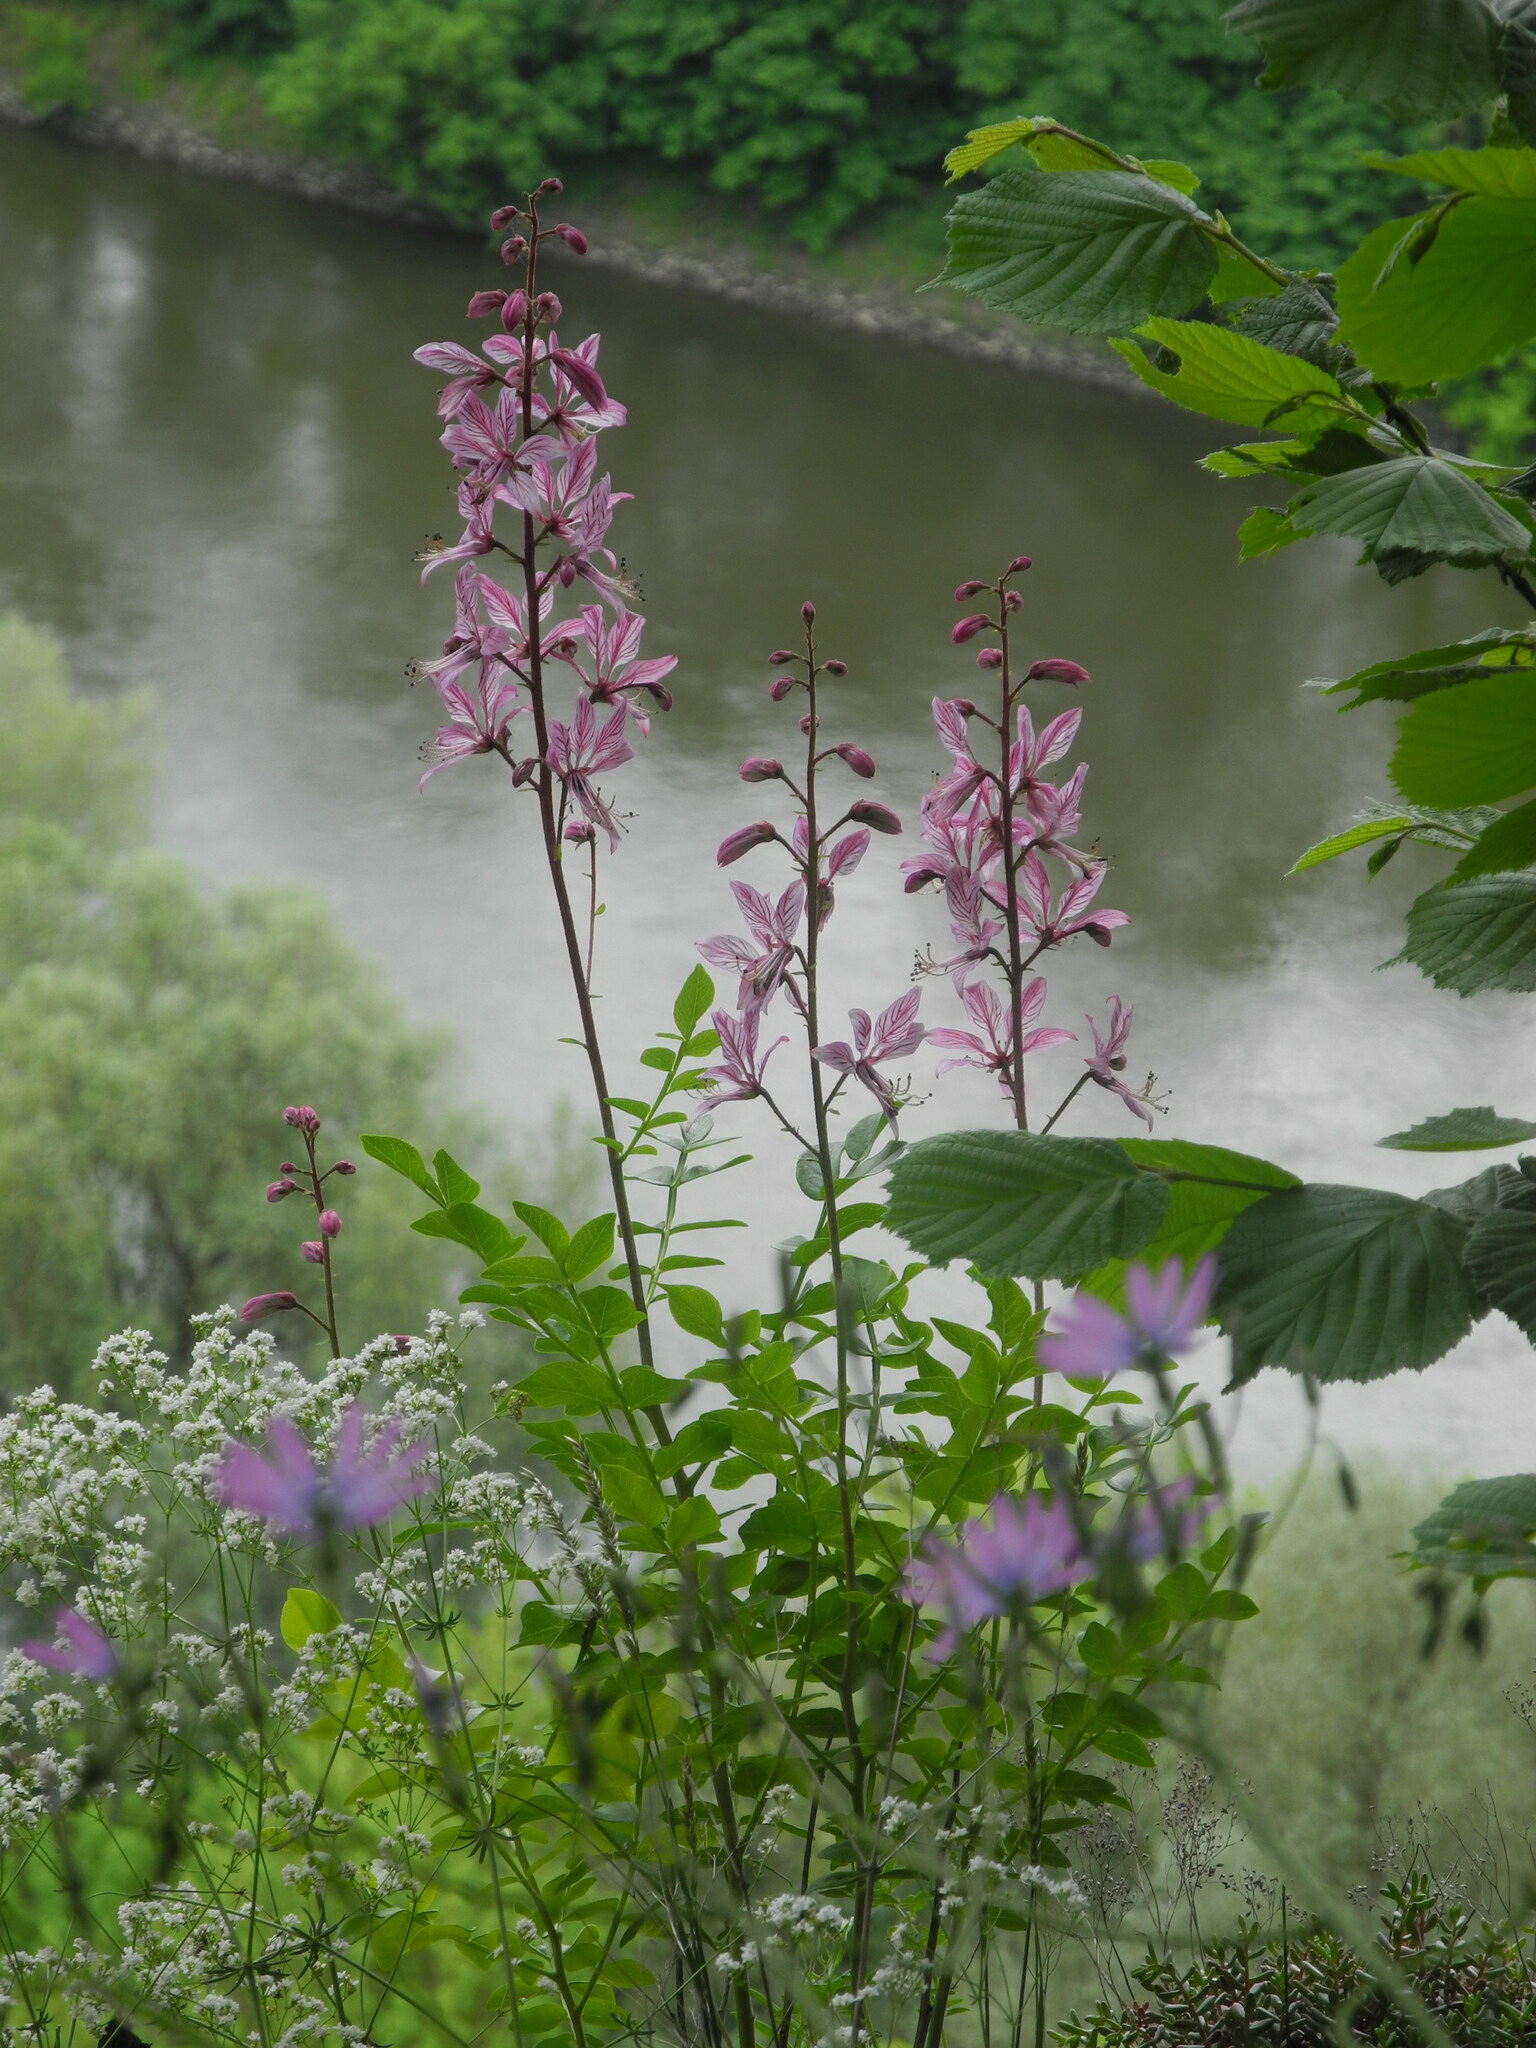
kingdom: Plantae
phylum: Tracheophyta
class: Magnoliopsida
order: Sapindales
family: Rutaceae
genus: Dictamnus
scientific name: Dictamnus albus
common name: Gasplant
